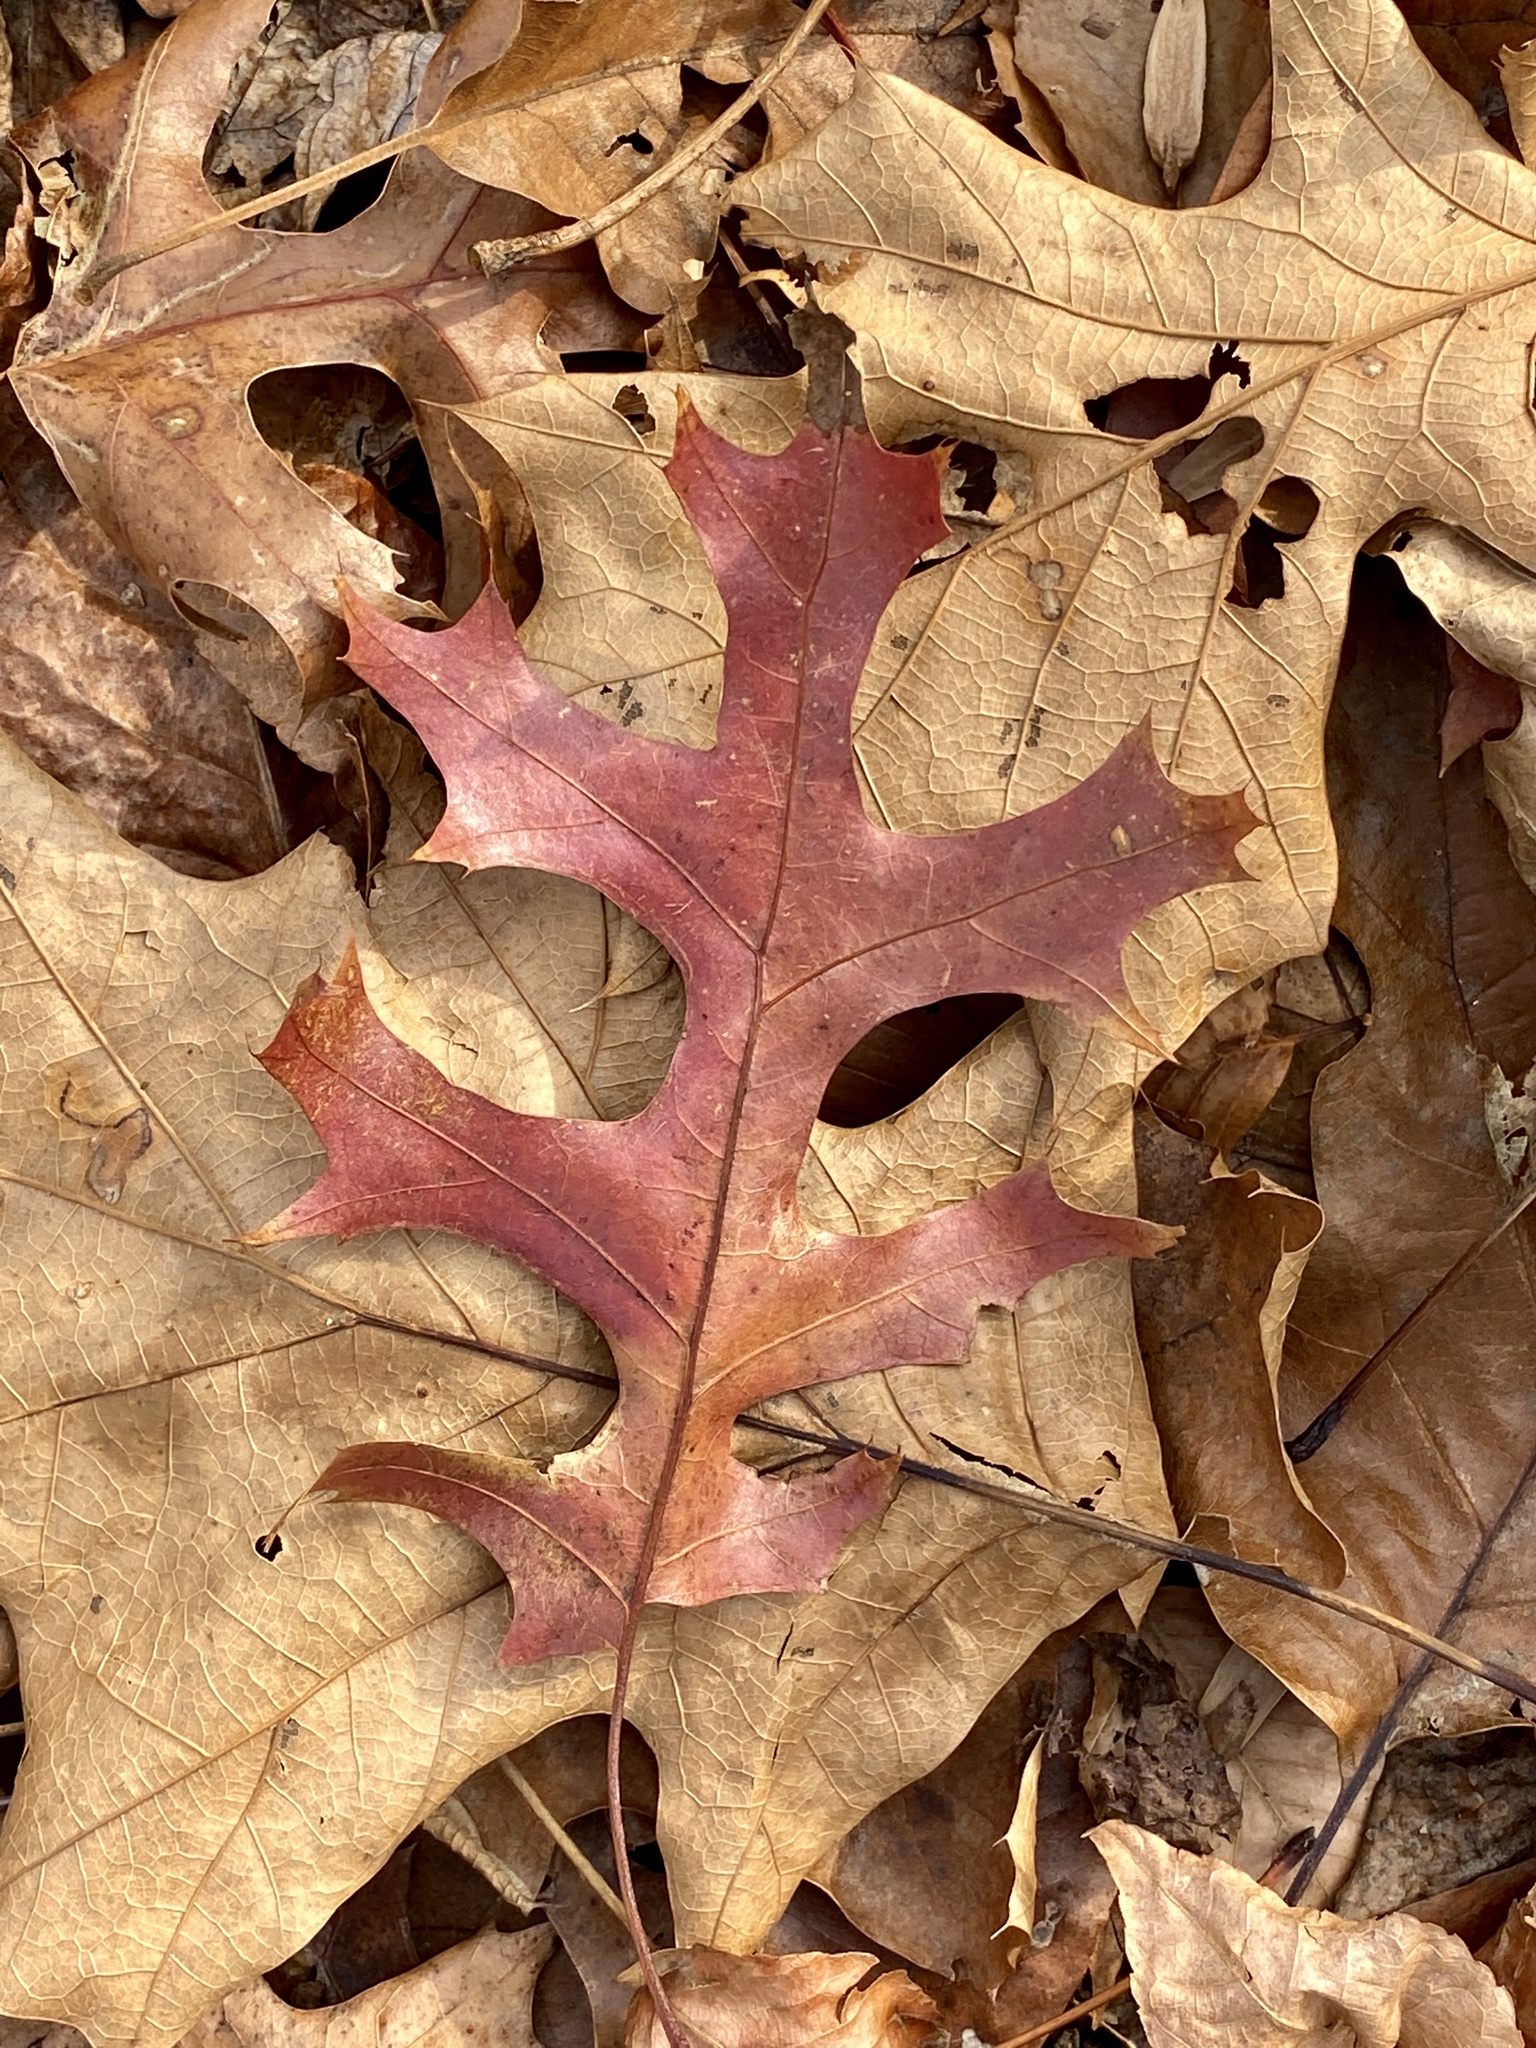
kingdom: Plantae
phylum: Tracheophyta
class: Magnoliopsida
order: Fagales
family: Fagaceae
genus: Quercus
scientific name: Quercus coccinea
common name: Scarlet oak
